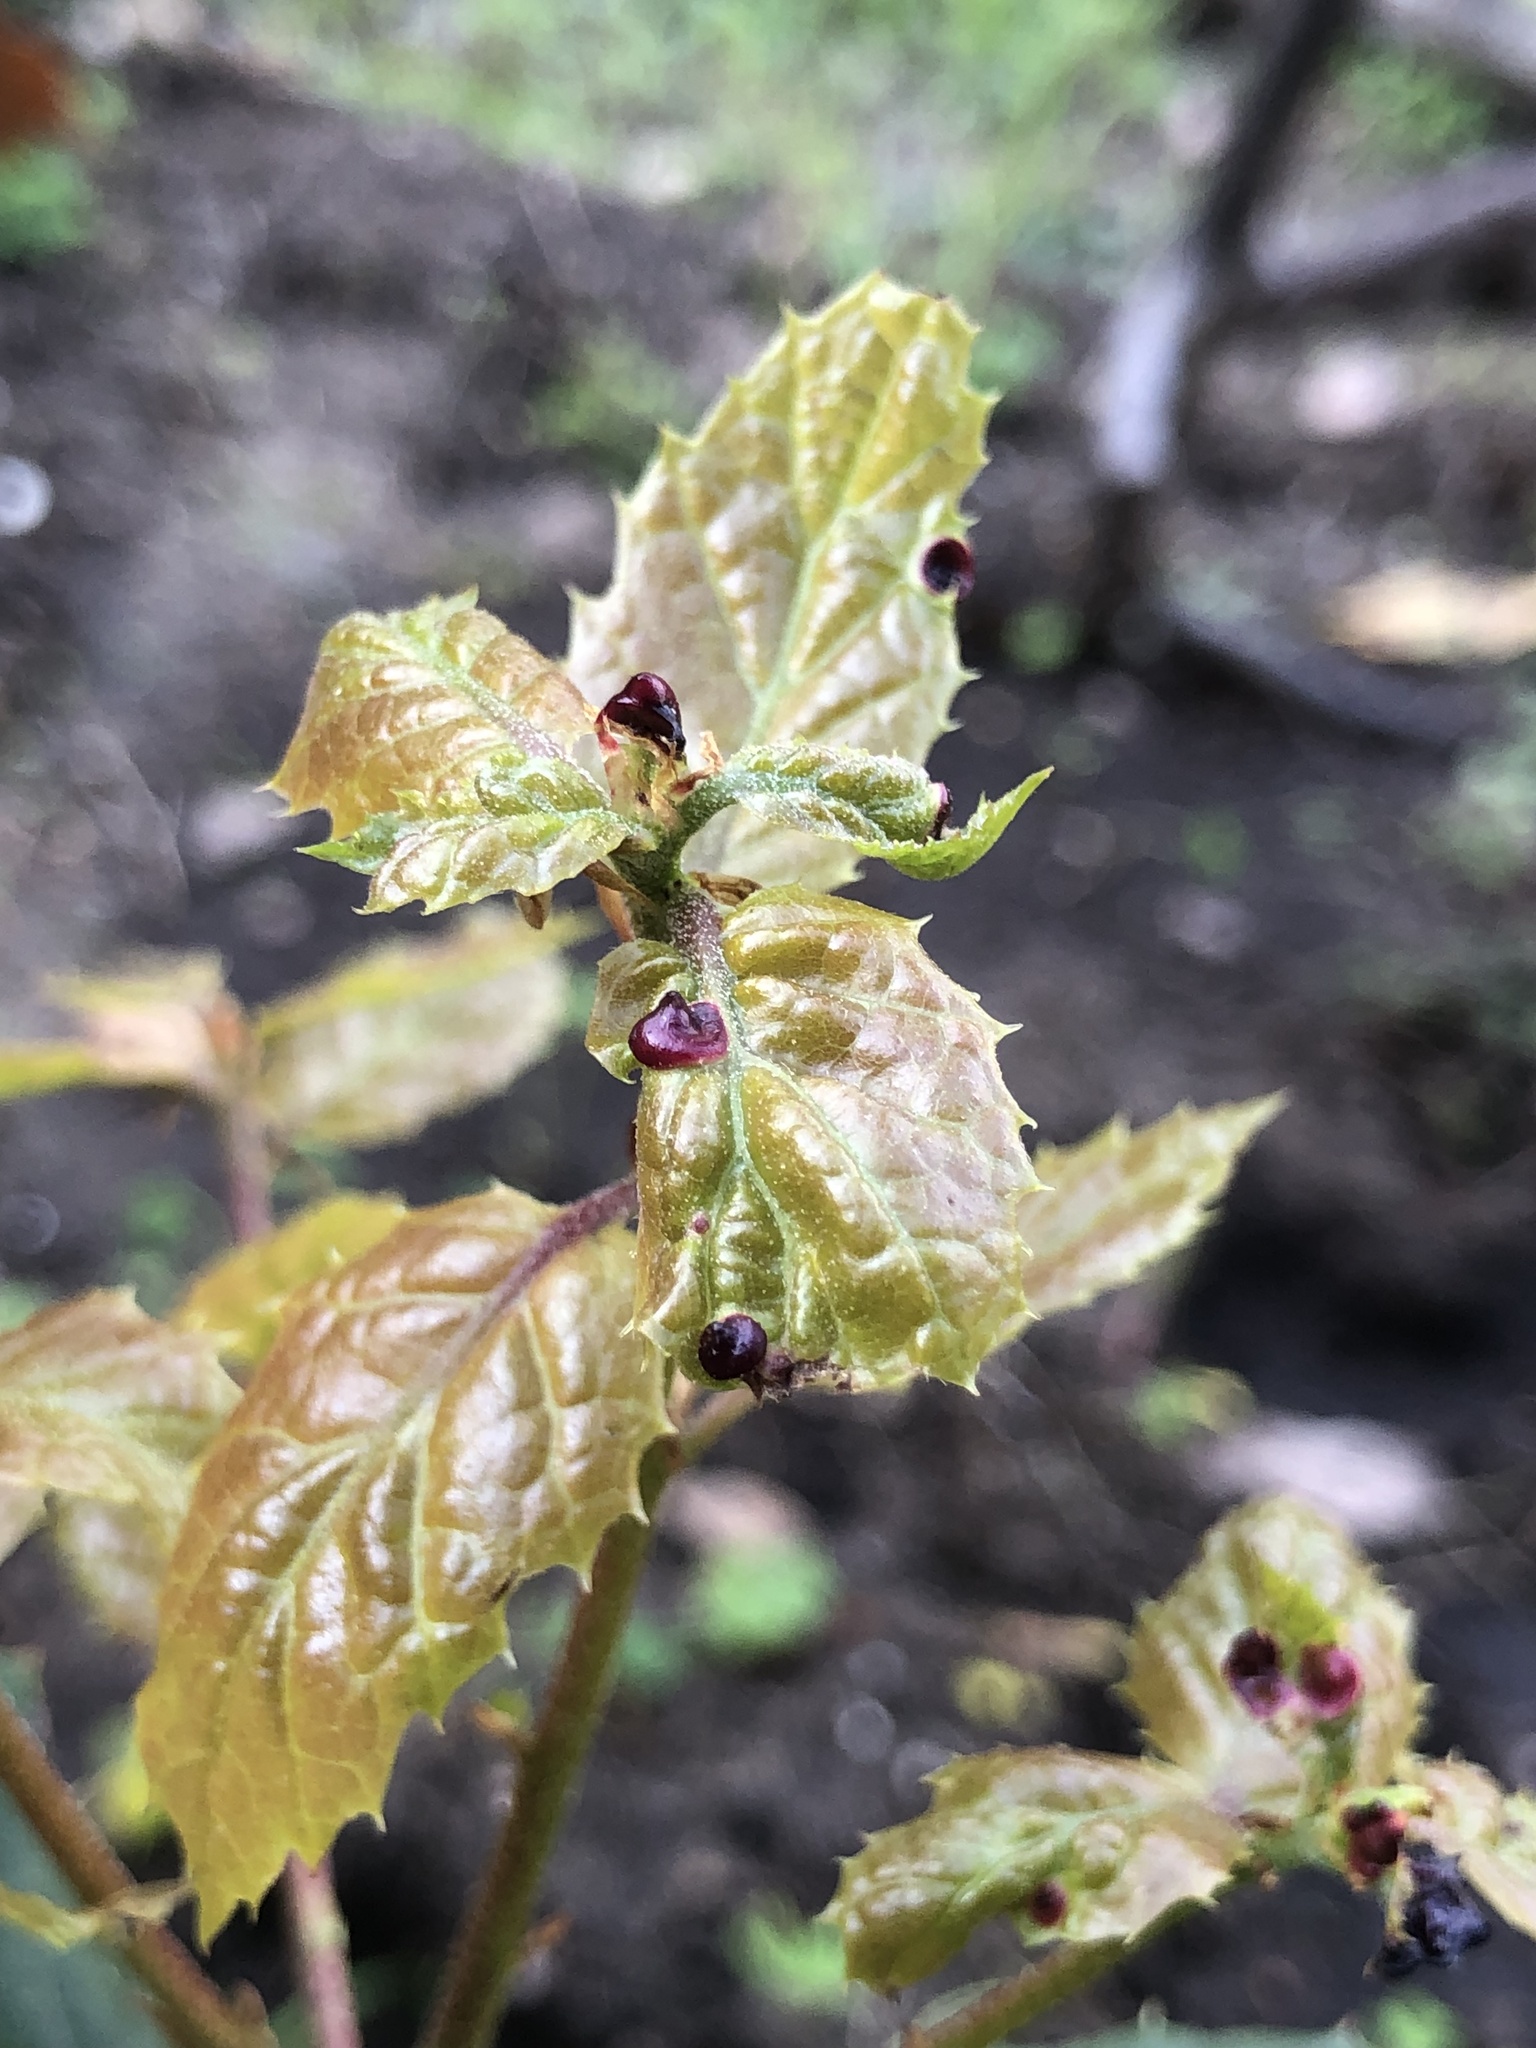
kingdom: Animalia
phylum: Arthropoda
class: Insecta
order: Hymenoptera
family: Cynipidae
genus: Dryocosmus
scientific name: Dryocosmus
